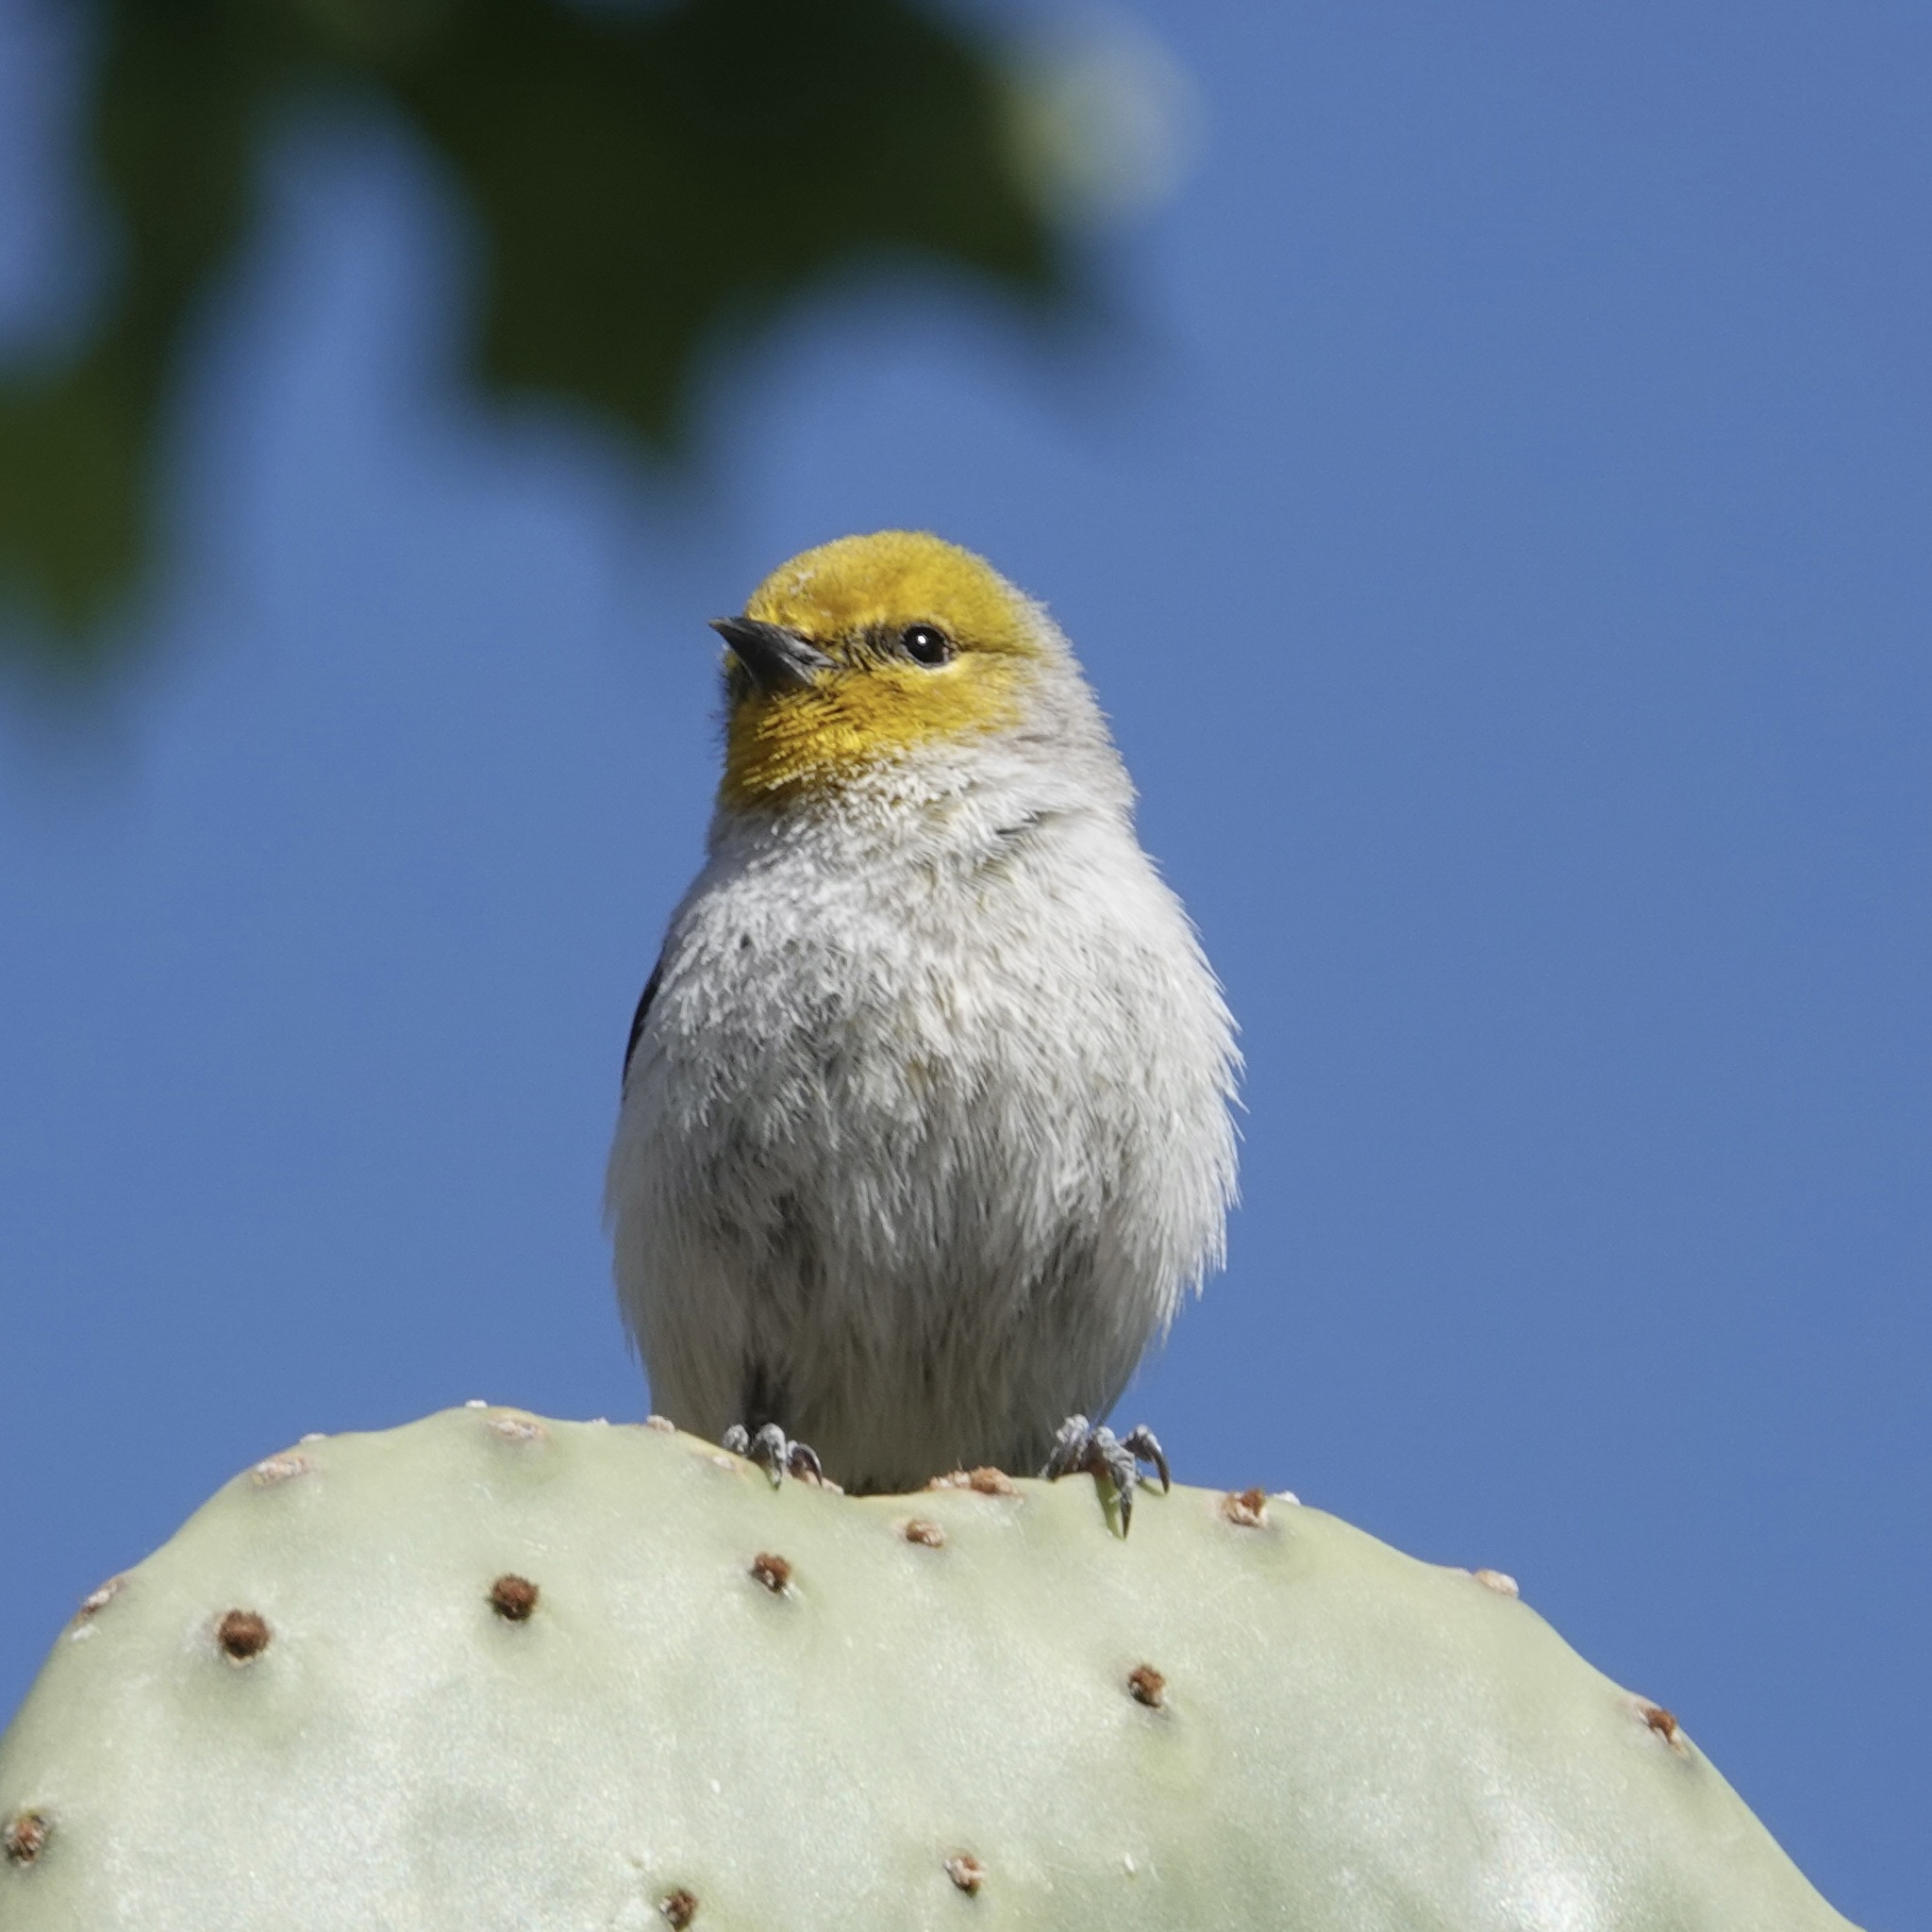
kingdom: Animalia
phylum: Chordata
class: Aves
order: Passeriformes
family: Remizidae
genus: Auriparus
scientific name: Auriparus flaviceps
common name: Verdin
